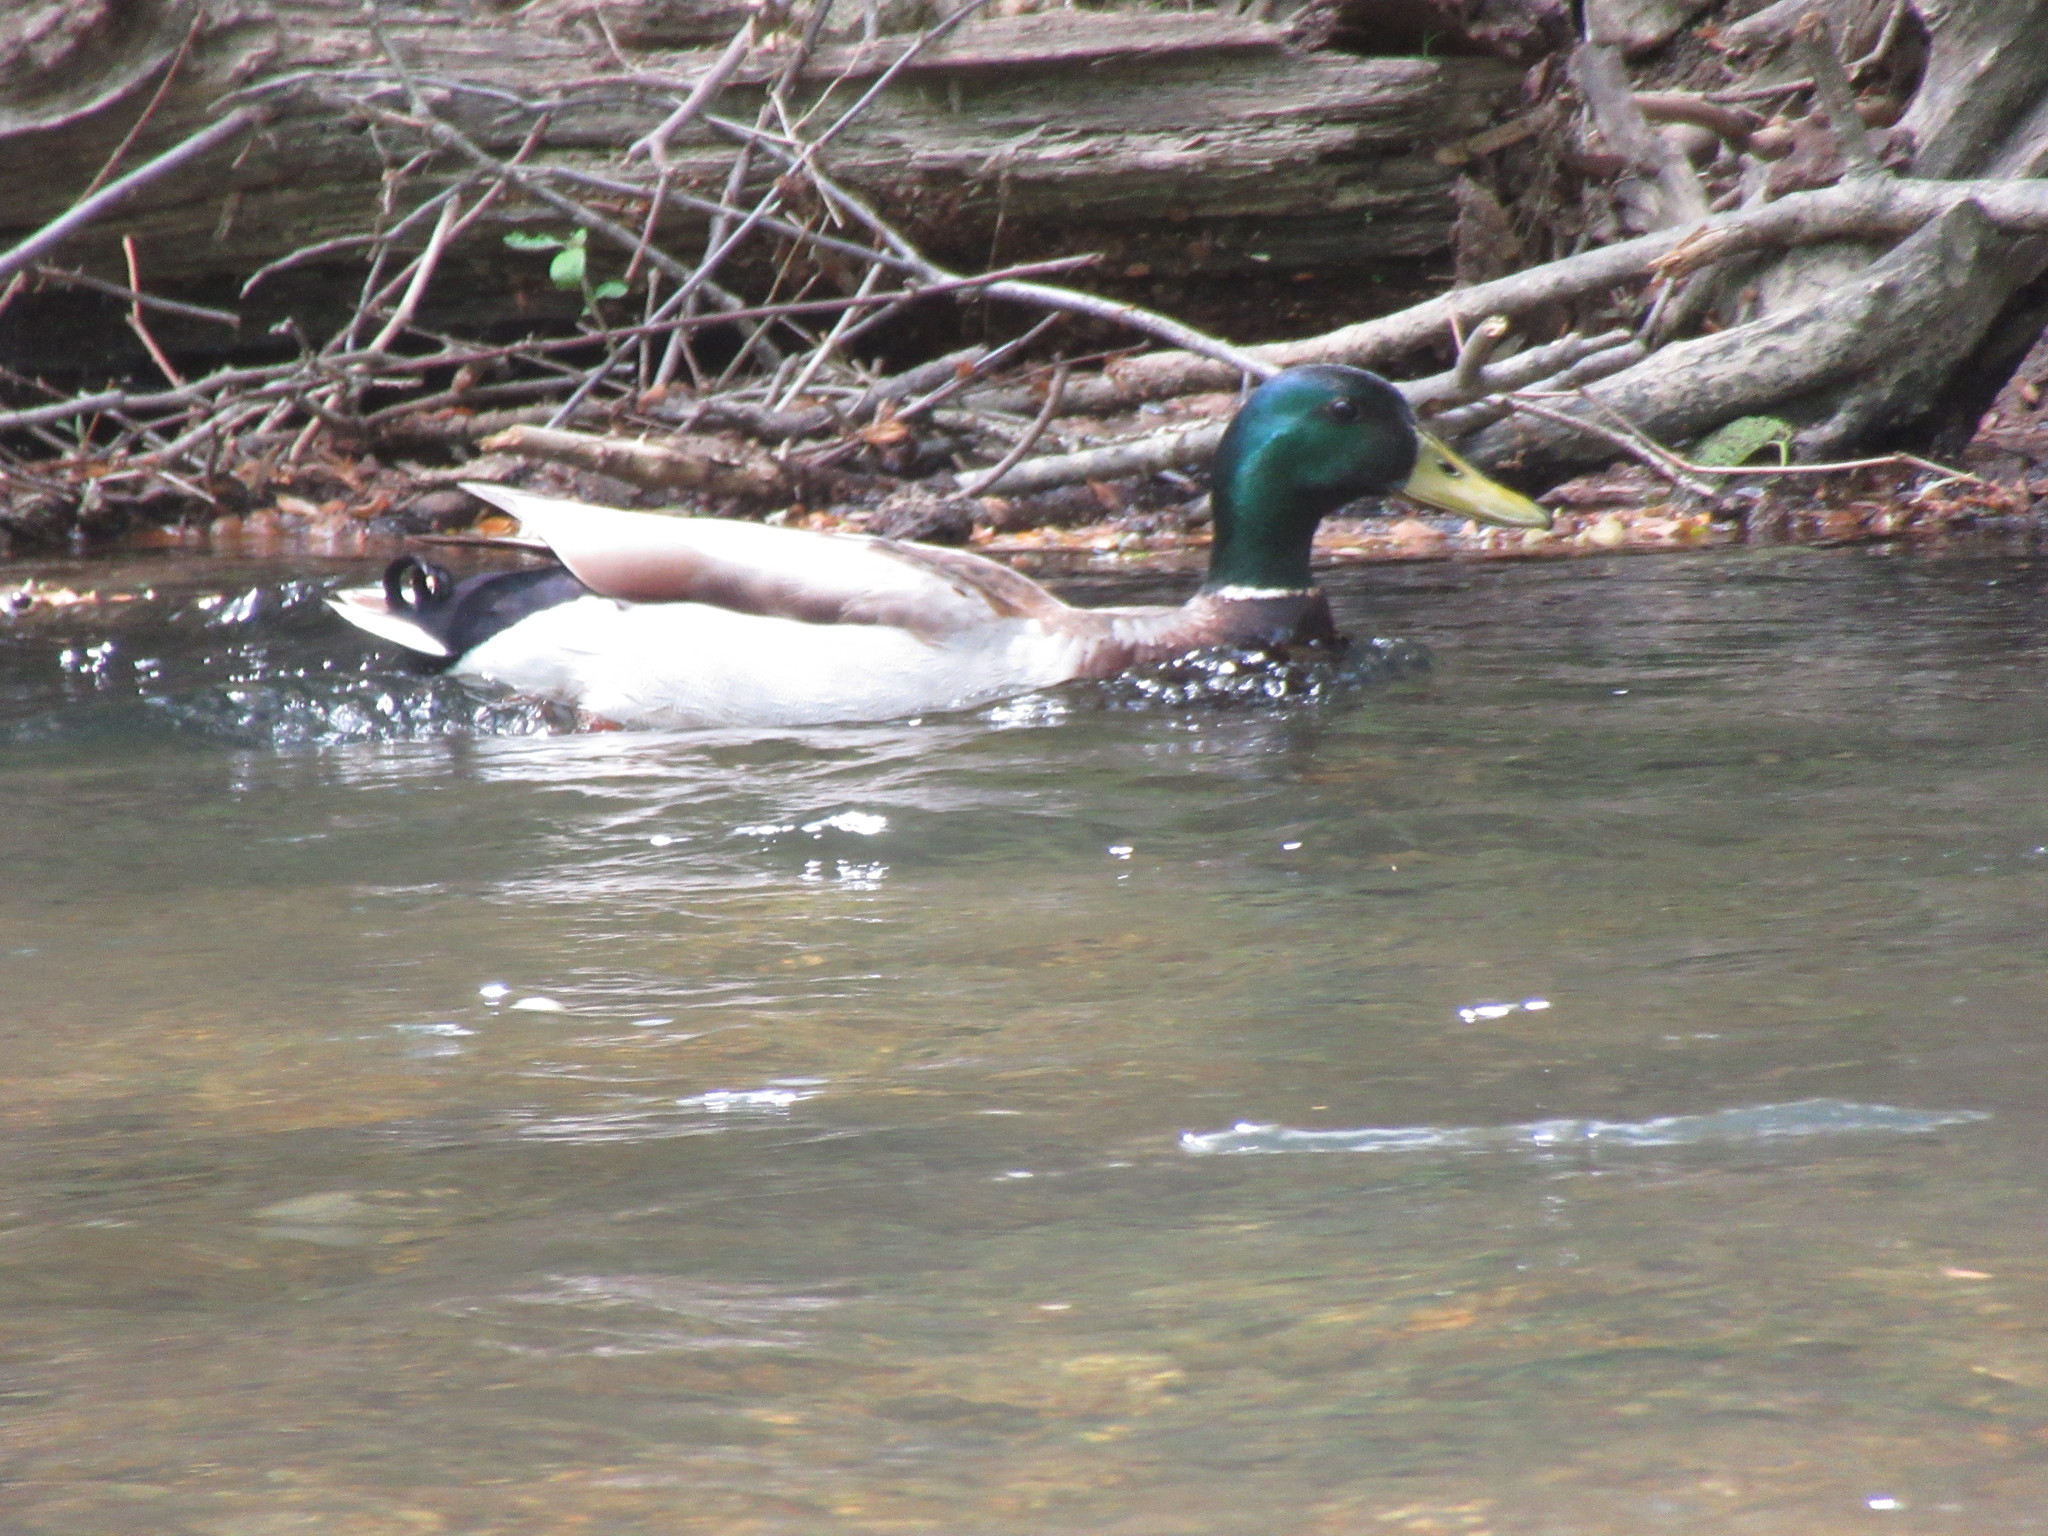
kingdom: Animalia
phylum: Chordata
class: Aves
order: Anseriformes
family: Anatidae
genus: Anas
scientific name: Anas platyrhynchos
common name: Mallard
